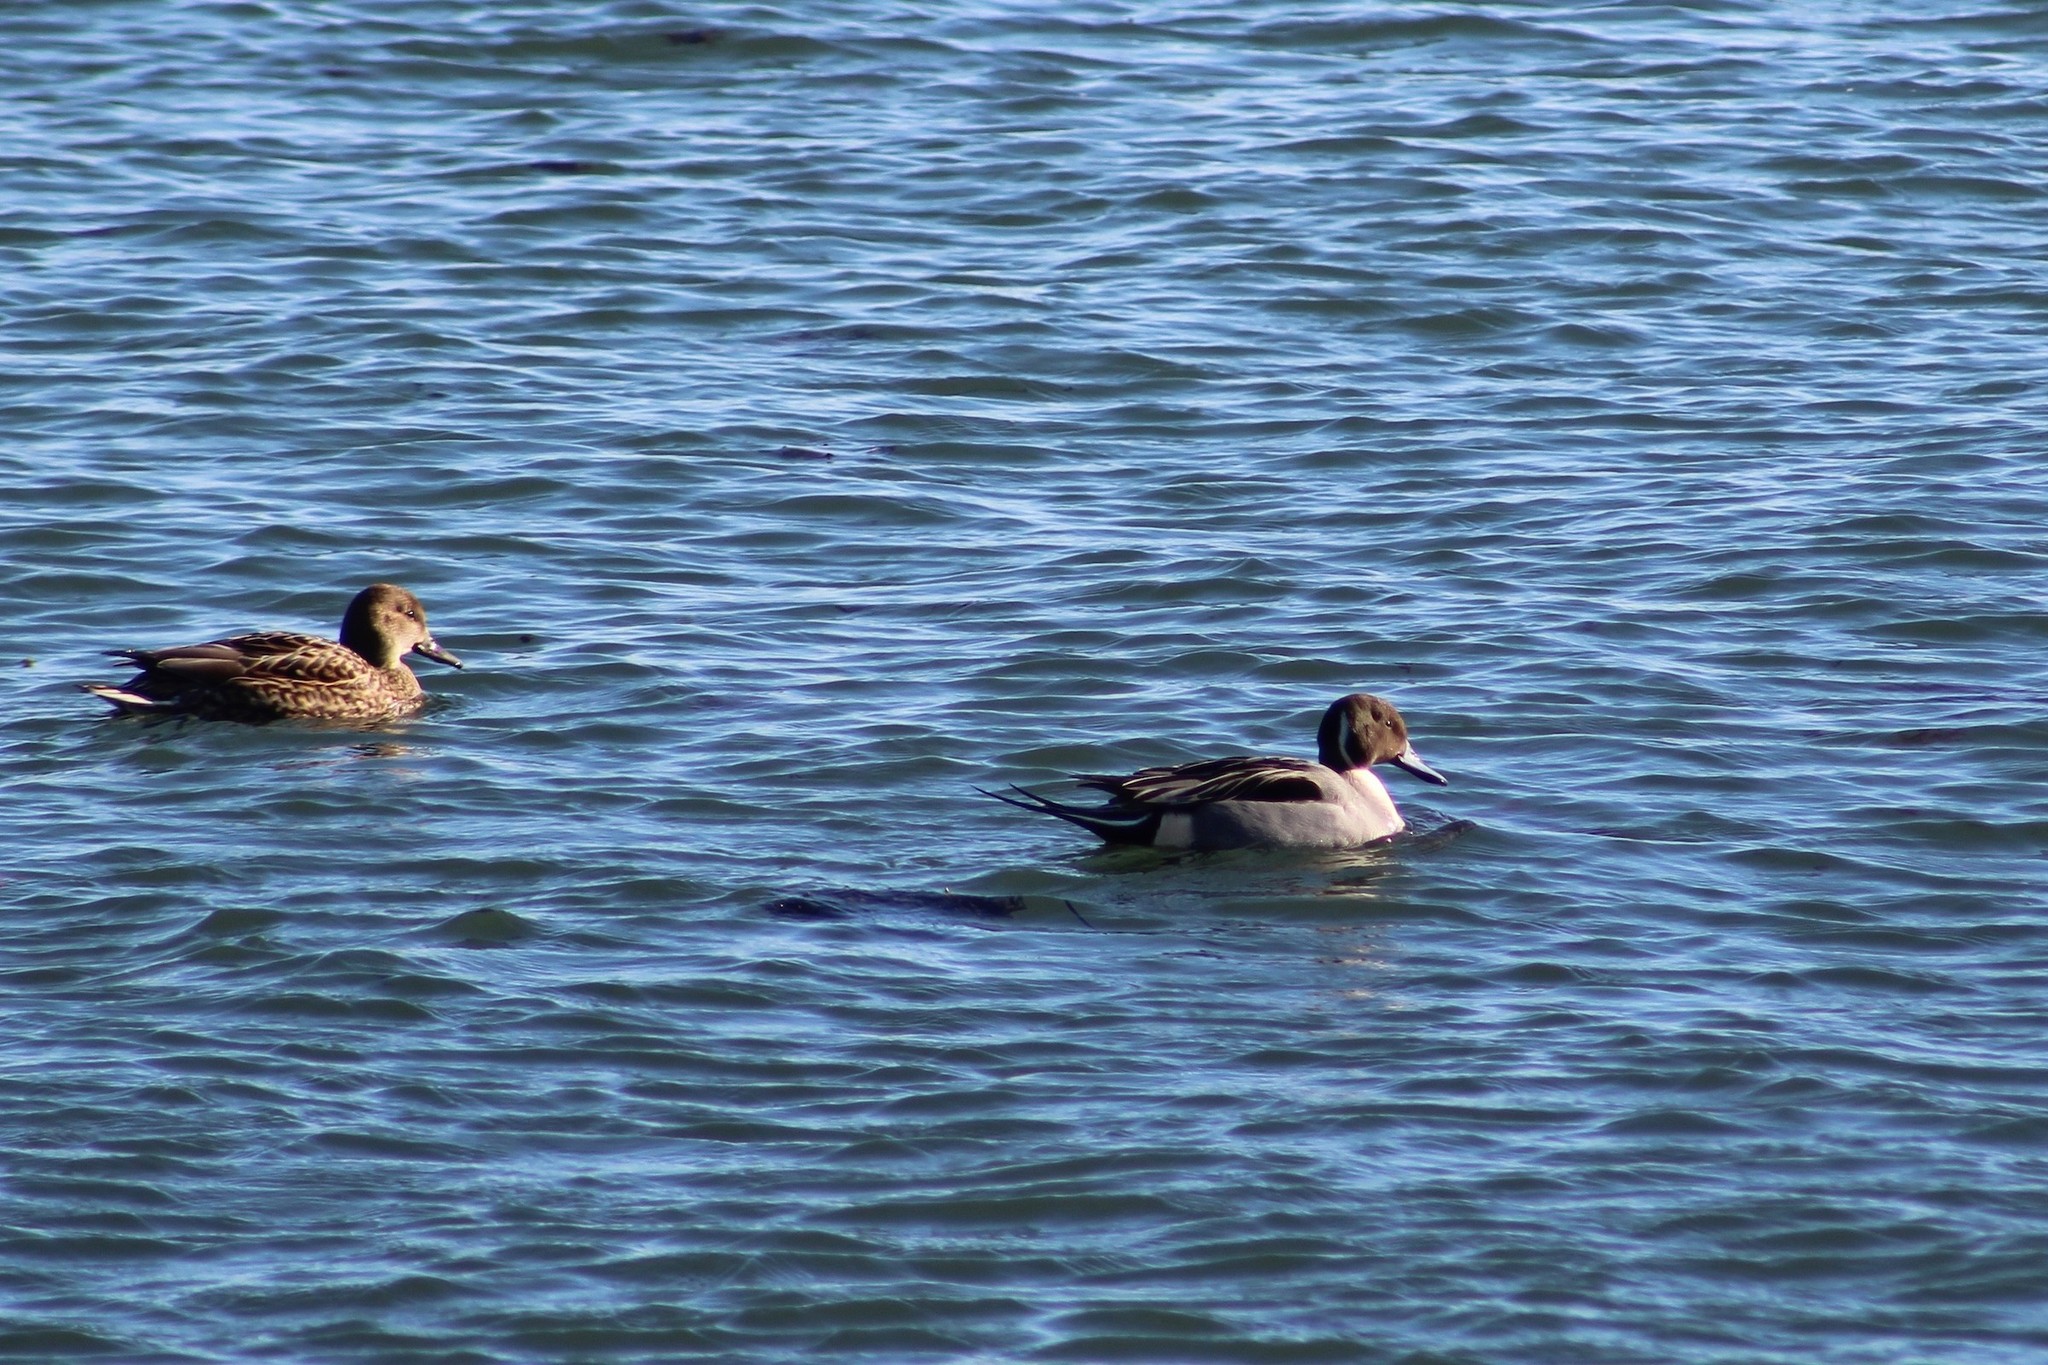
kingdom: Animalia
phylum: Chordata
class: Aves
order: Anseriformes
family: Anatidae
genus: Anas
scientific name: Anas acuta
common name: Northern pintail
